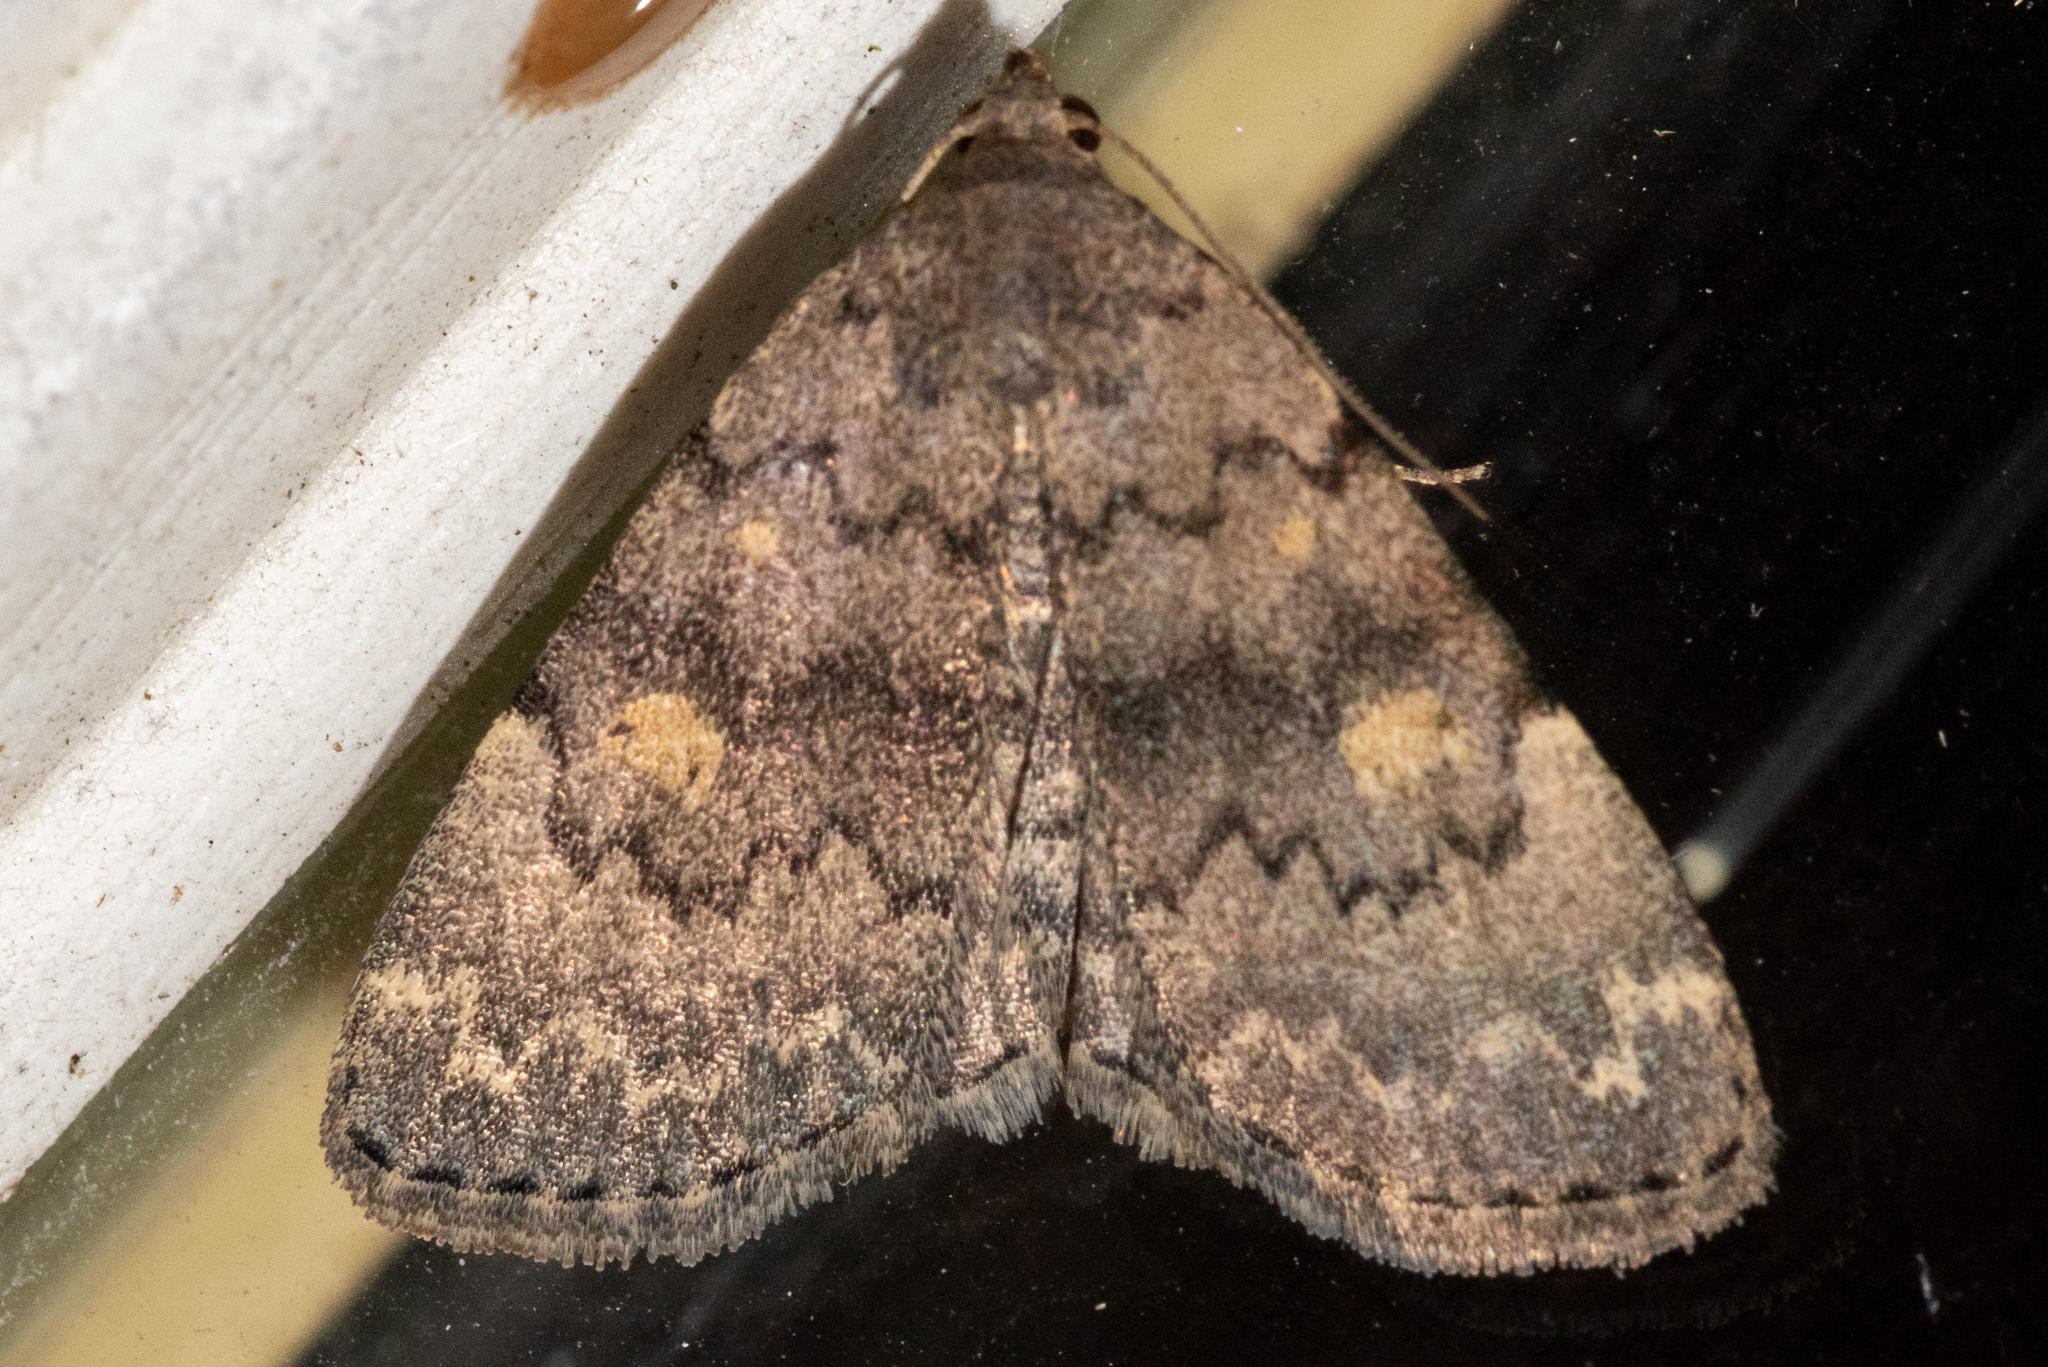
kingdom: Animalia
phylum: Arthropoda
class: Insecta
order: Lepidoptera
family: Erebidae
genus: Idia
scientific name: Idia aemula
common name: Common idia moth
